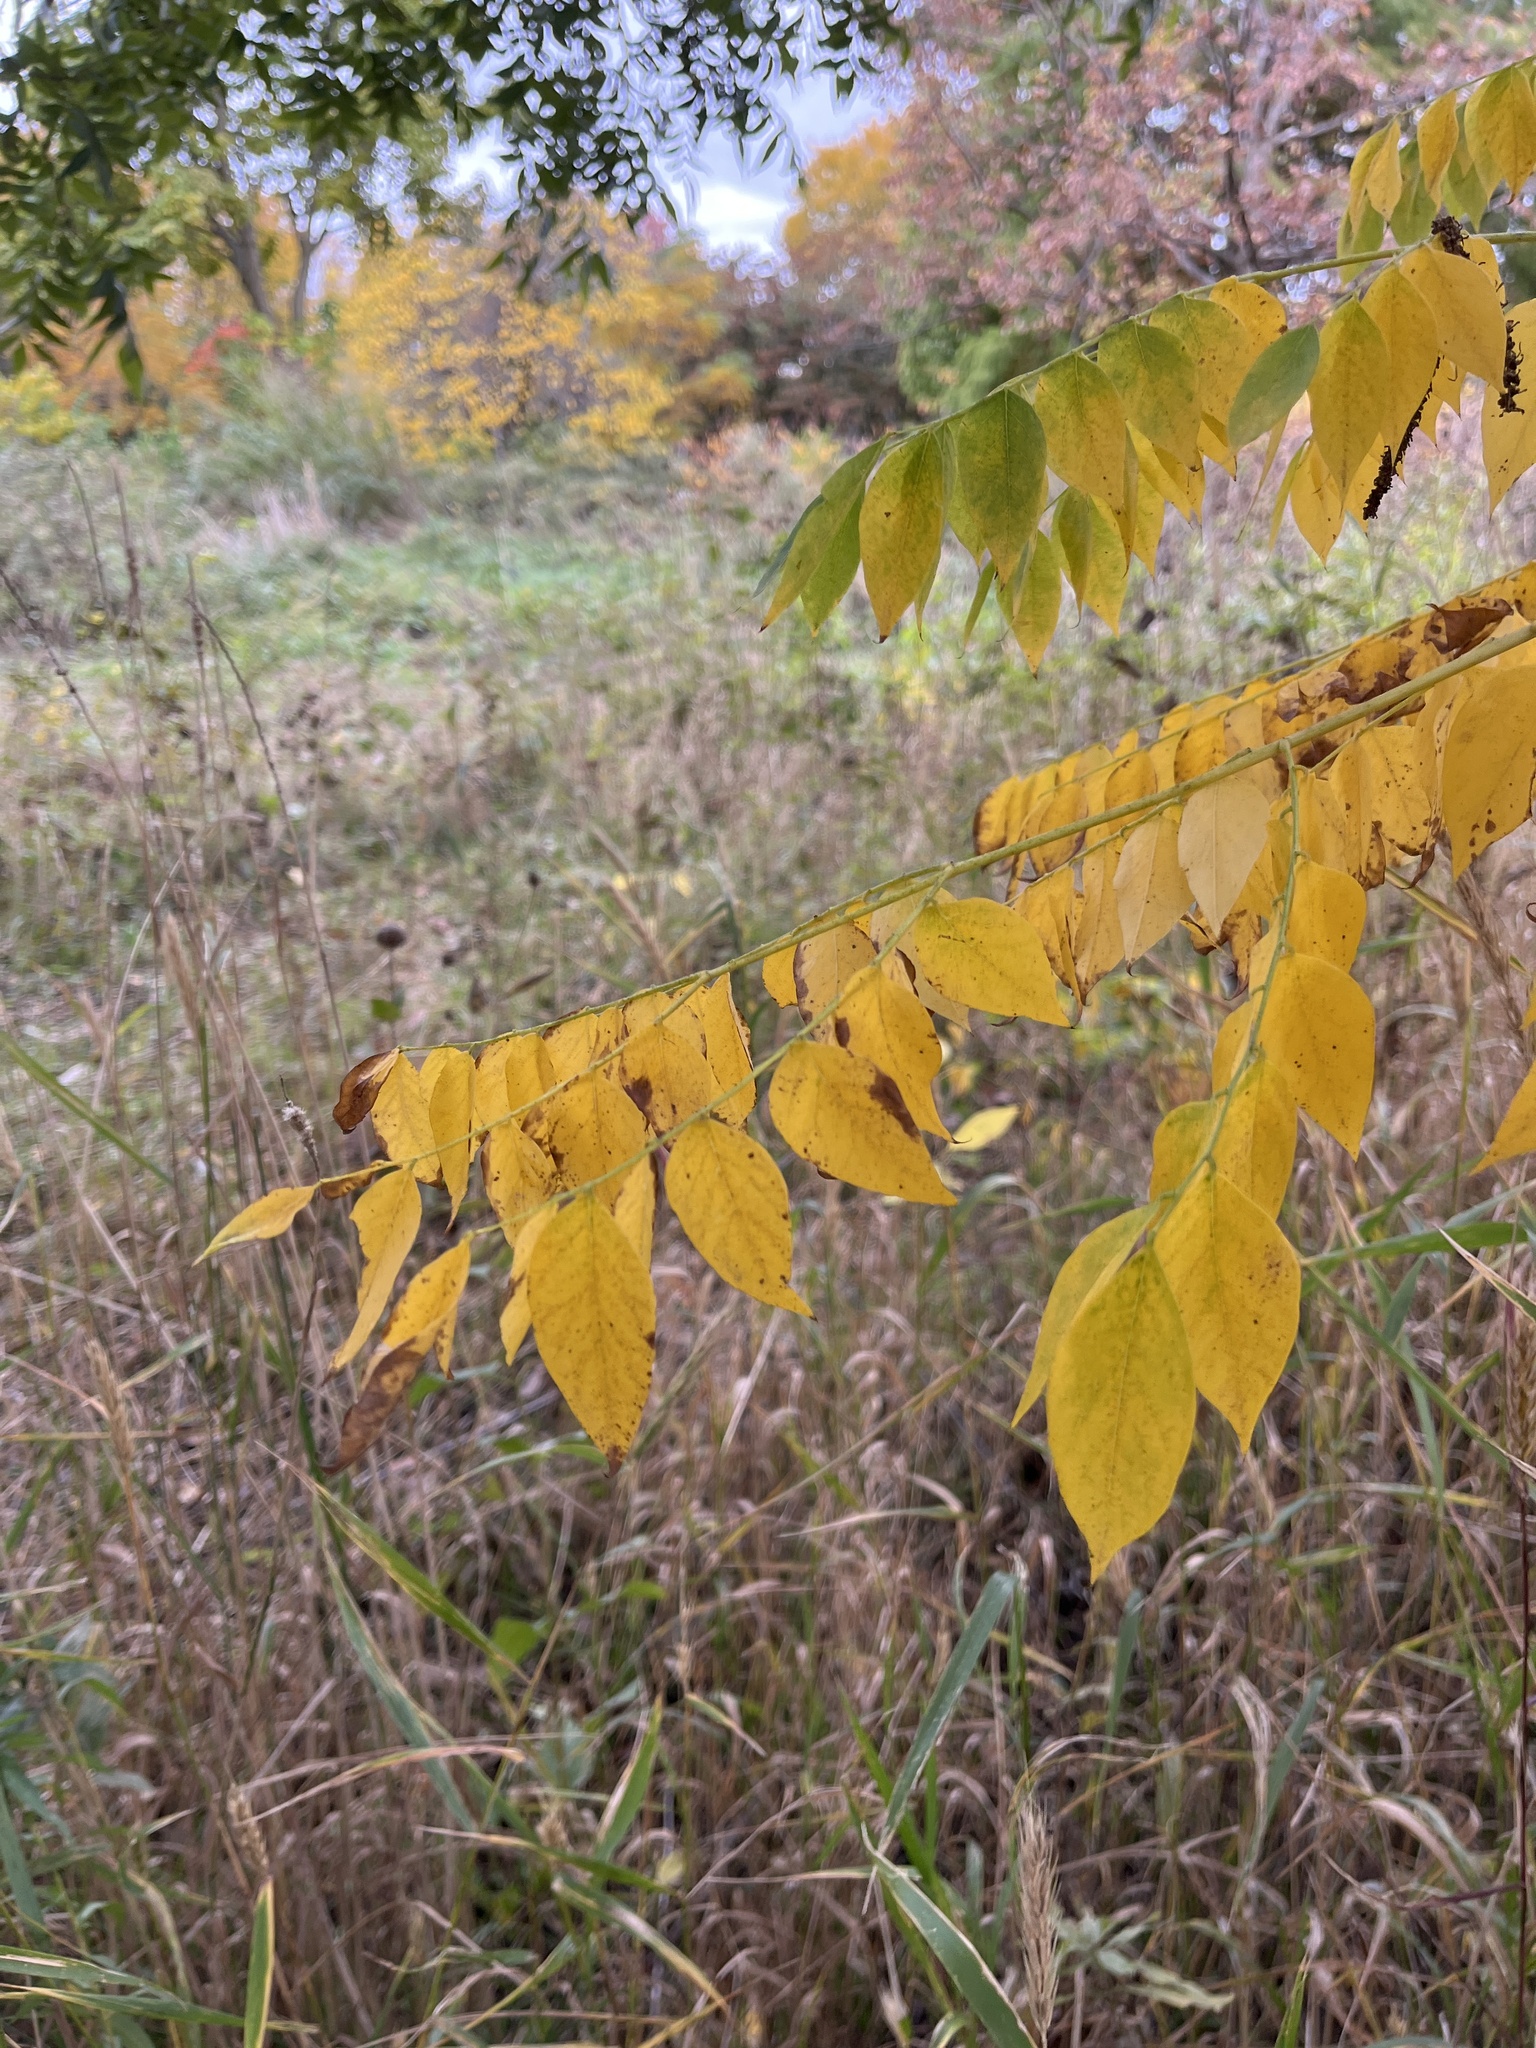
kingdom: Plantae
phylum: Tracheophyta
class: Magnoliopsida
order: Fabales
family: Fabaceae
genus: Gymnocladus
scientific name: Gymnocladus dioicus
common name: Kentucky coffee-tree
